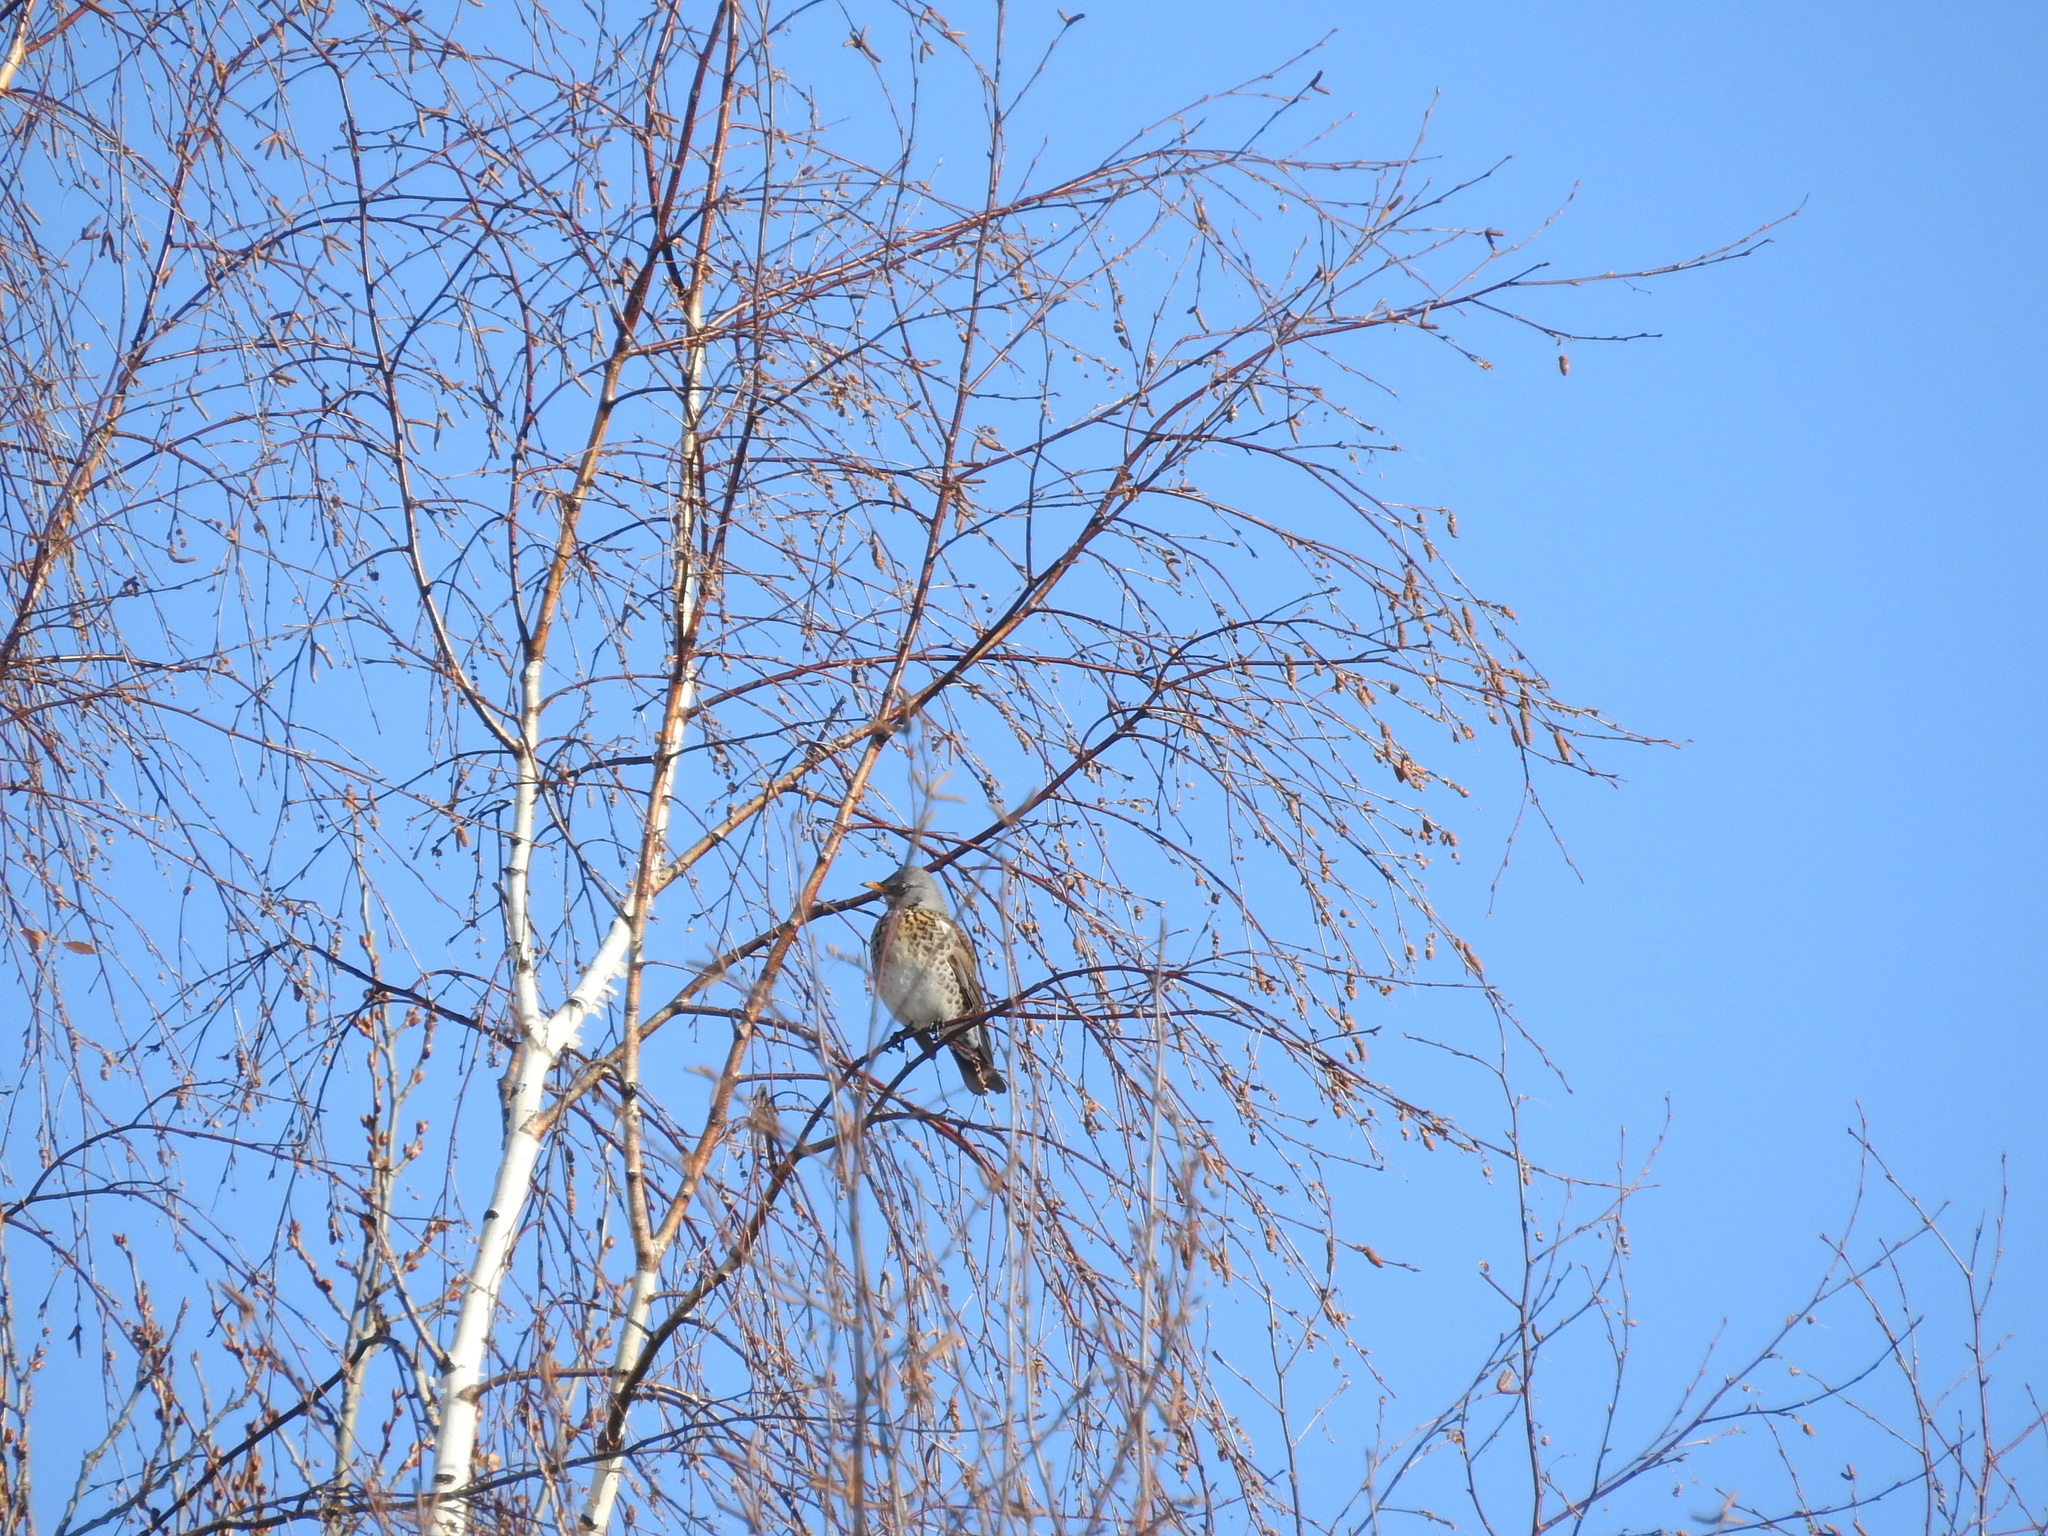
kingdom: Animalia
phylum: Chordata
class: Aves
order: Passeriformes
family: Turdidae
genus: Turdus
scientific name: Turdus pilaris
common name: Fieldfare
